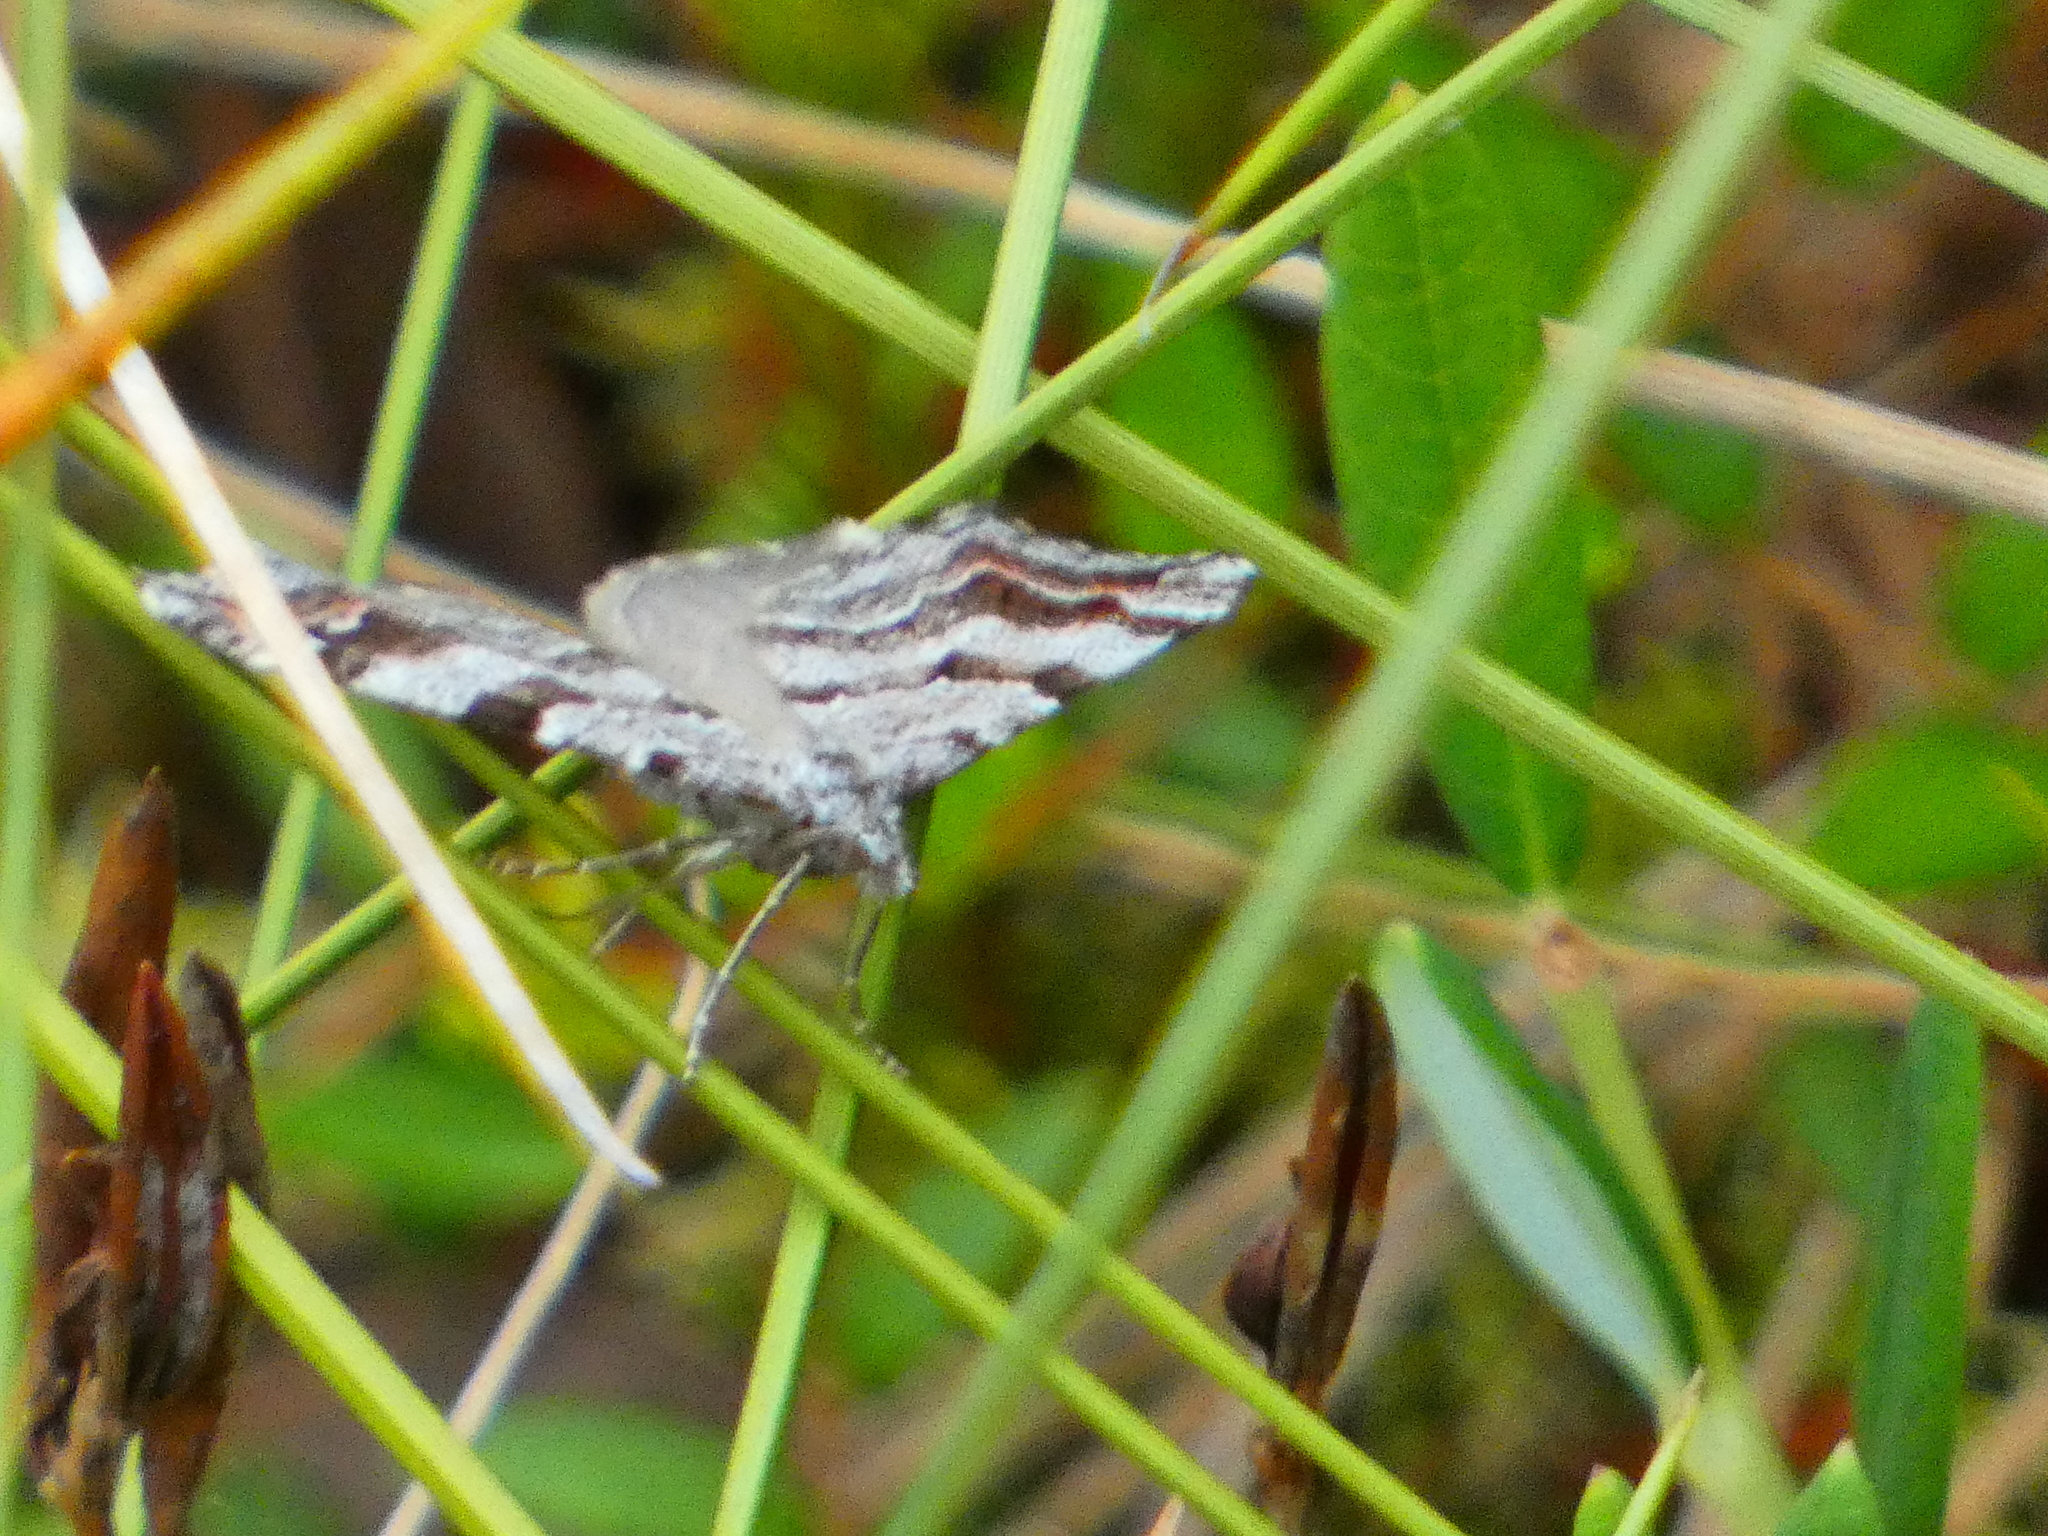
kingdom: Animalia
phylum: Arthropoda
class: Insecta
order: Lepidoptera
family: Geometridae
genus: Carsia
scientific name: Carsia sororiata
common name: Manchester treble-bar
